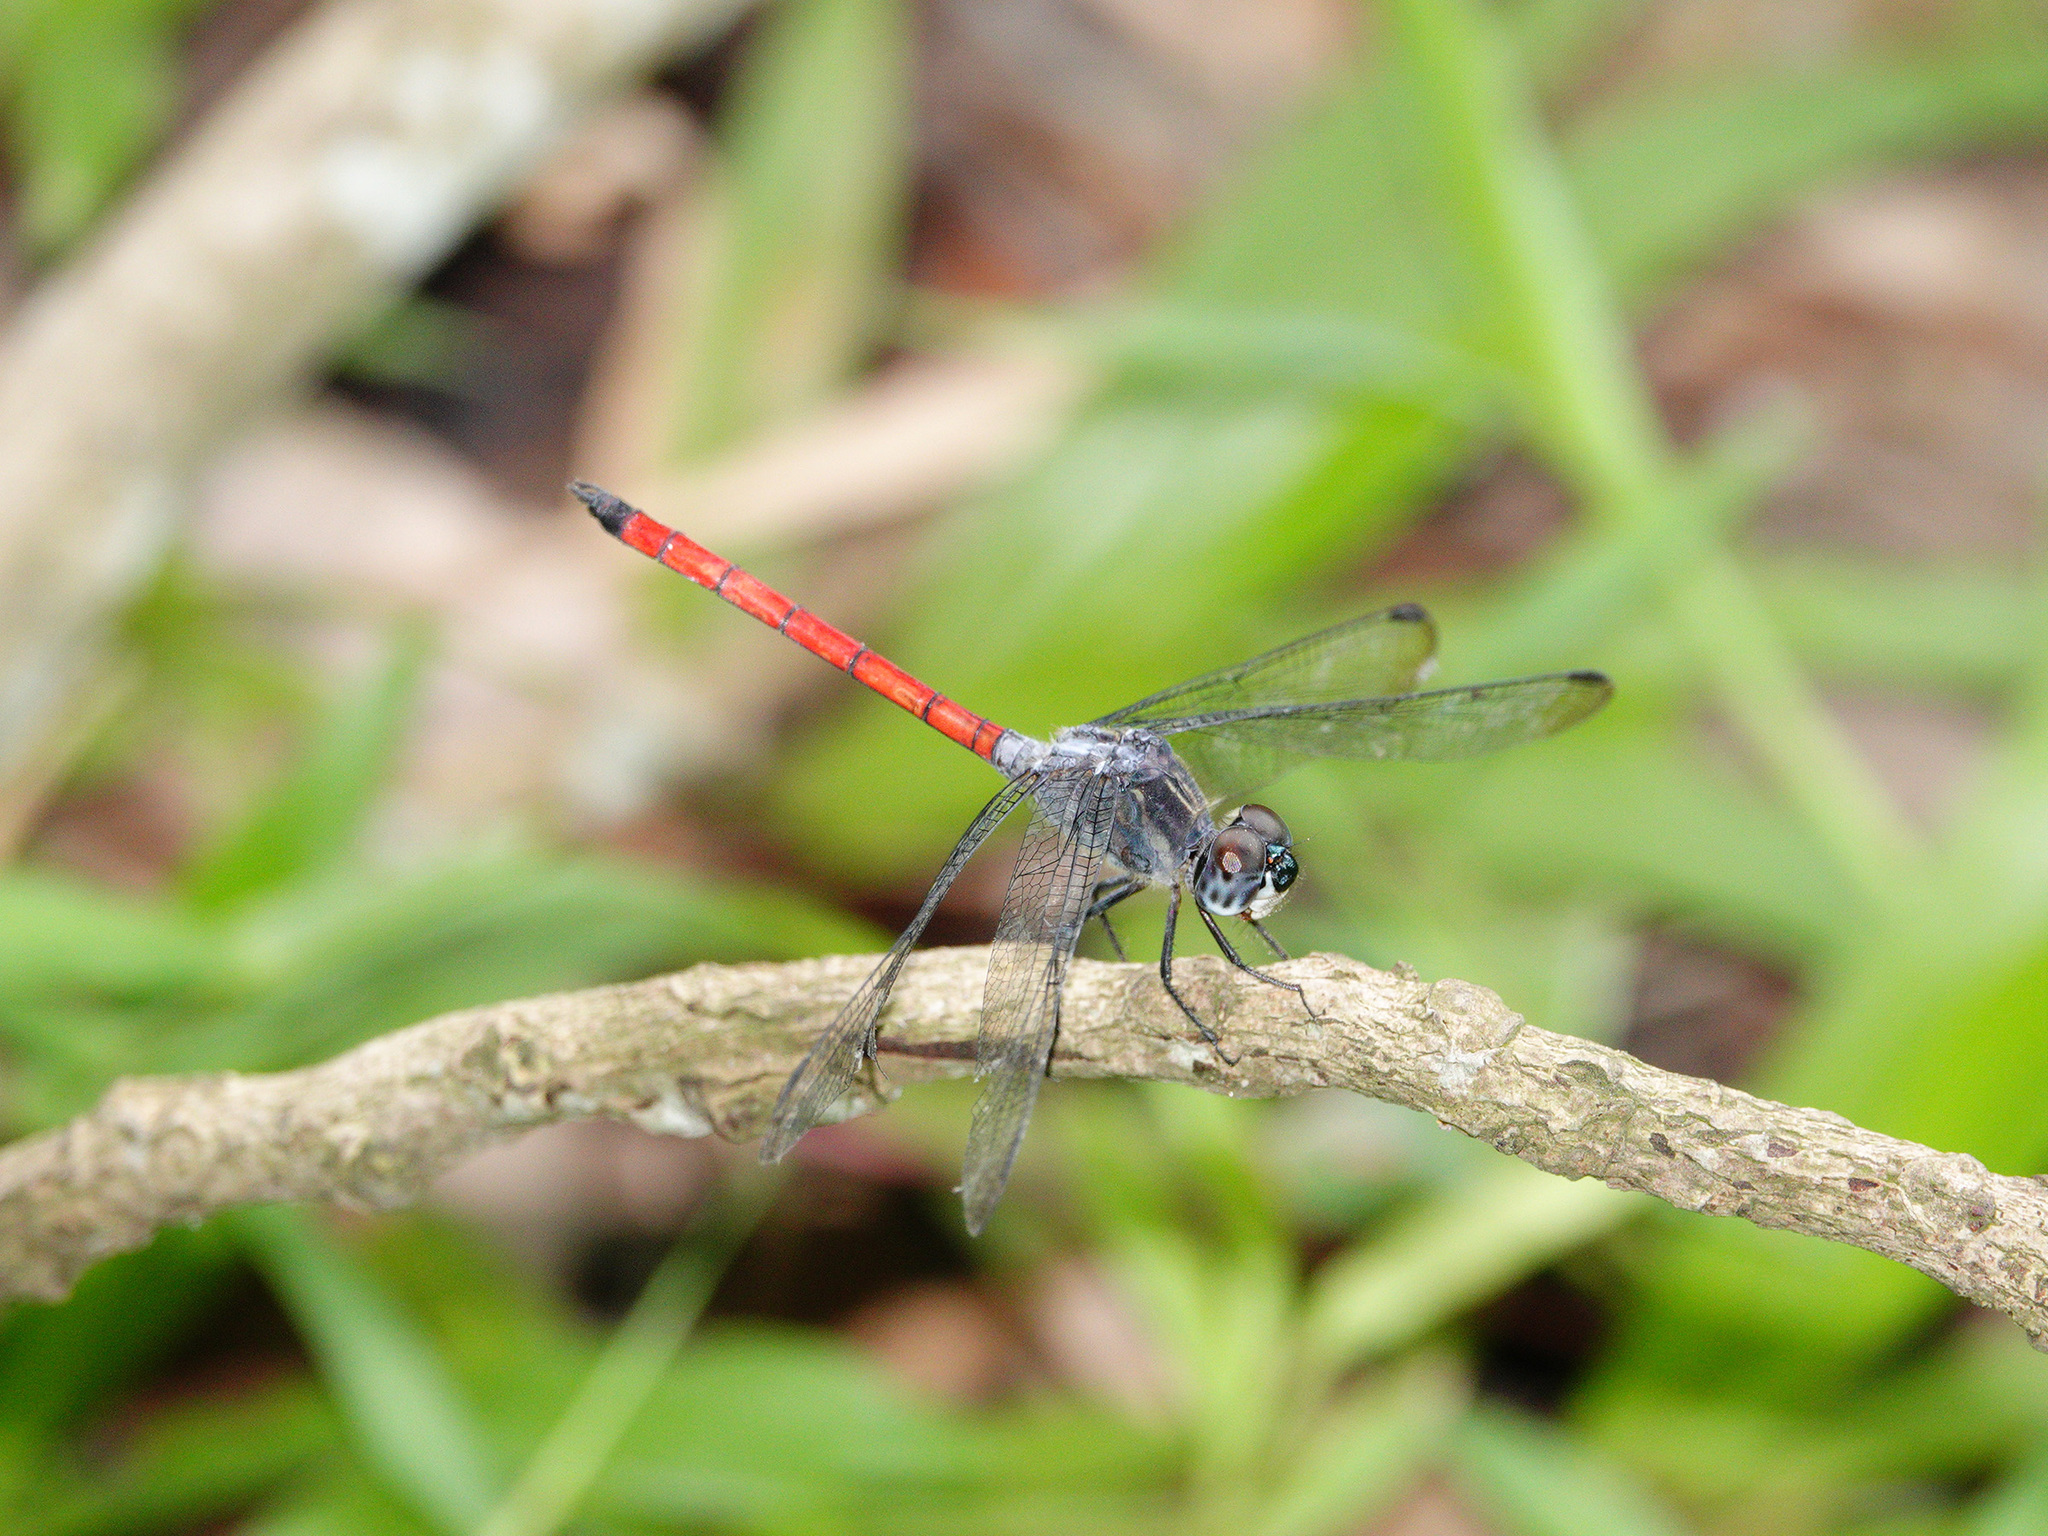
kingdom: Animalia
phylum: Arthropoda
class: Insecta
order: Odonata
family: Libellulidae
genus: Lathrecista
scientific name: Lathrecista asiatica
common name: Scarlet grenadier
